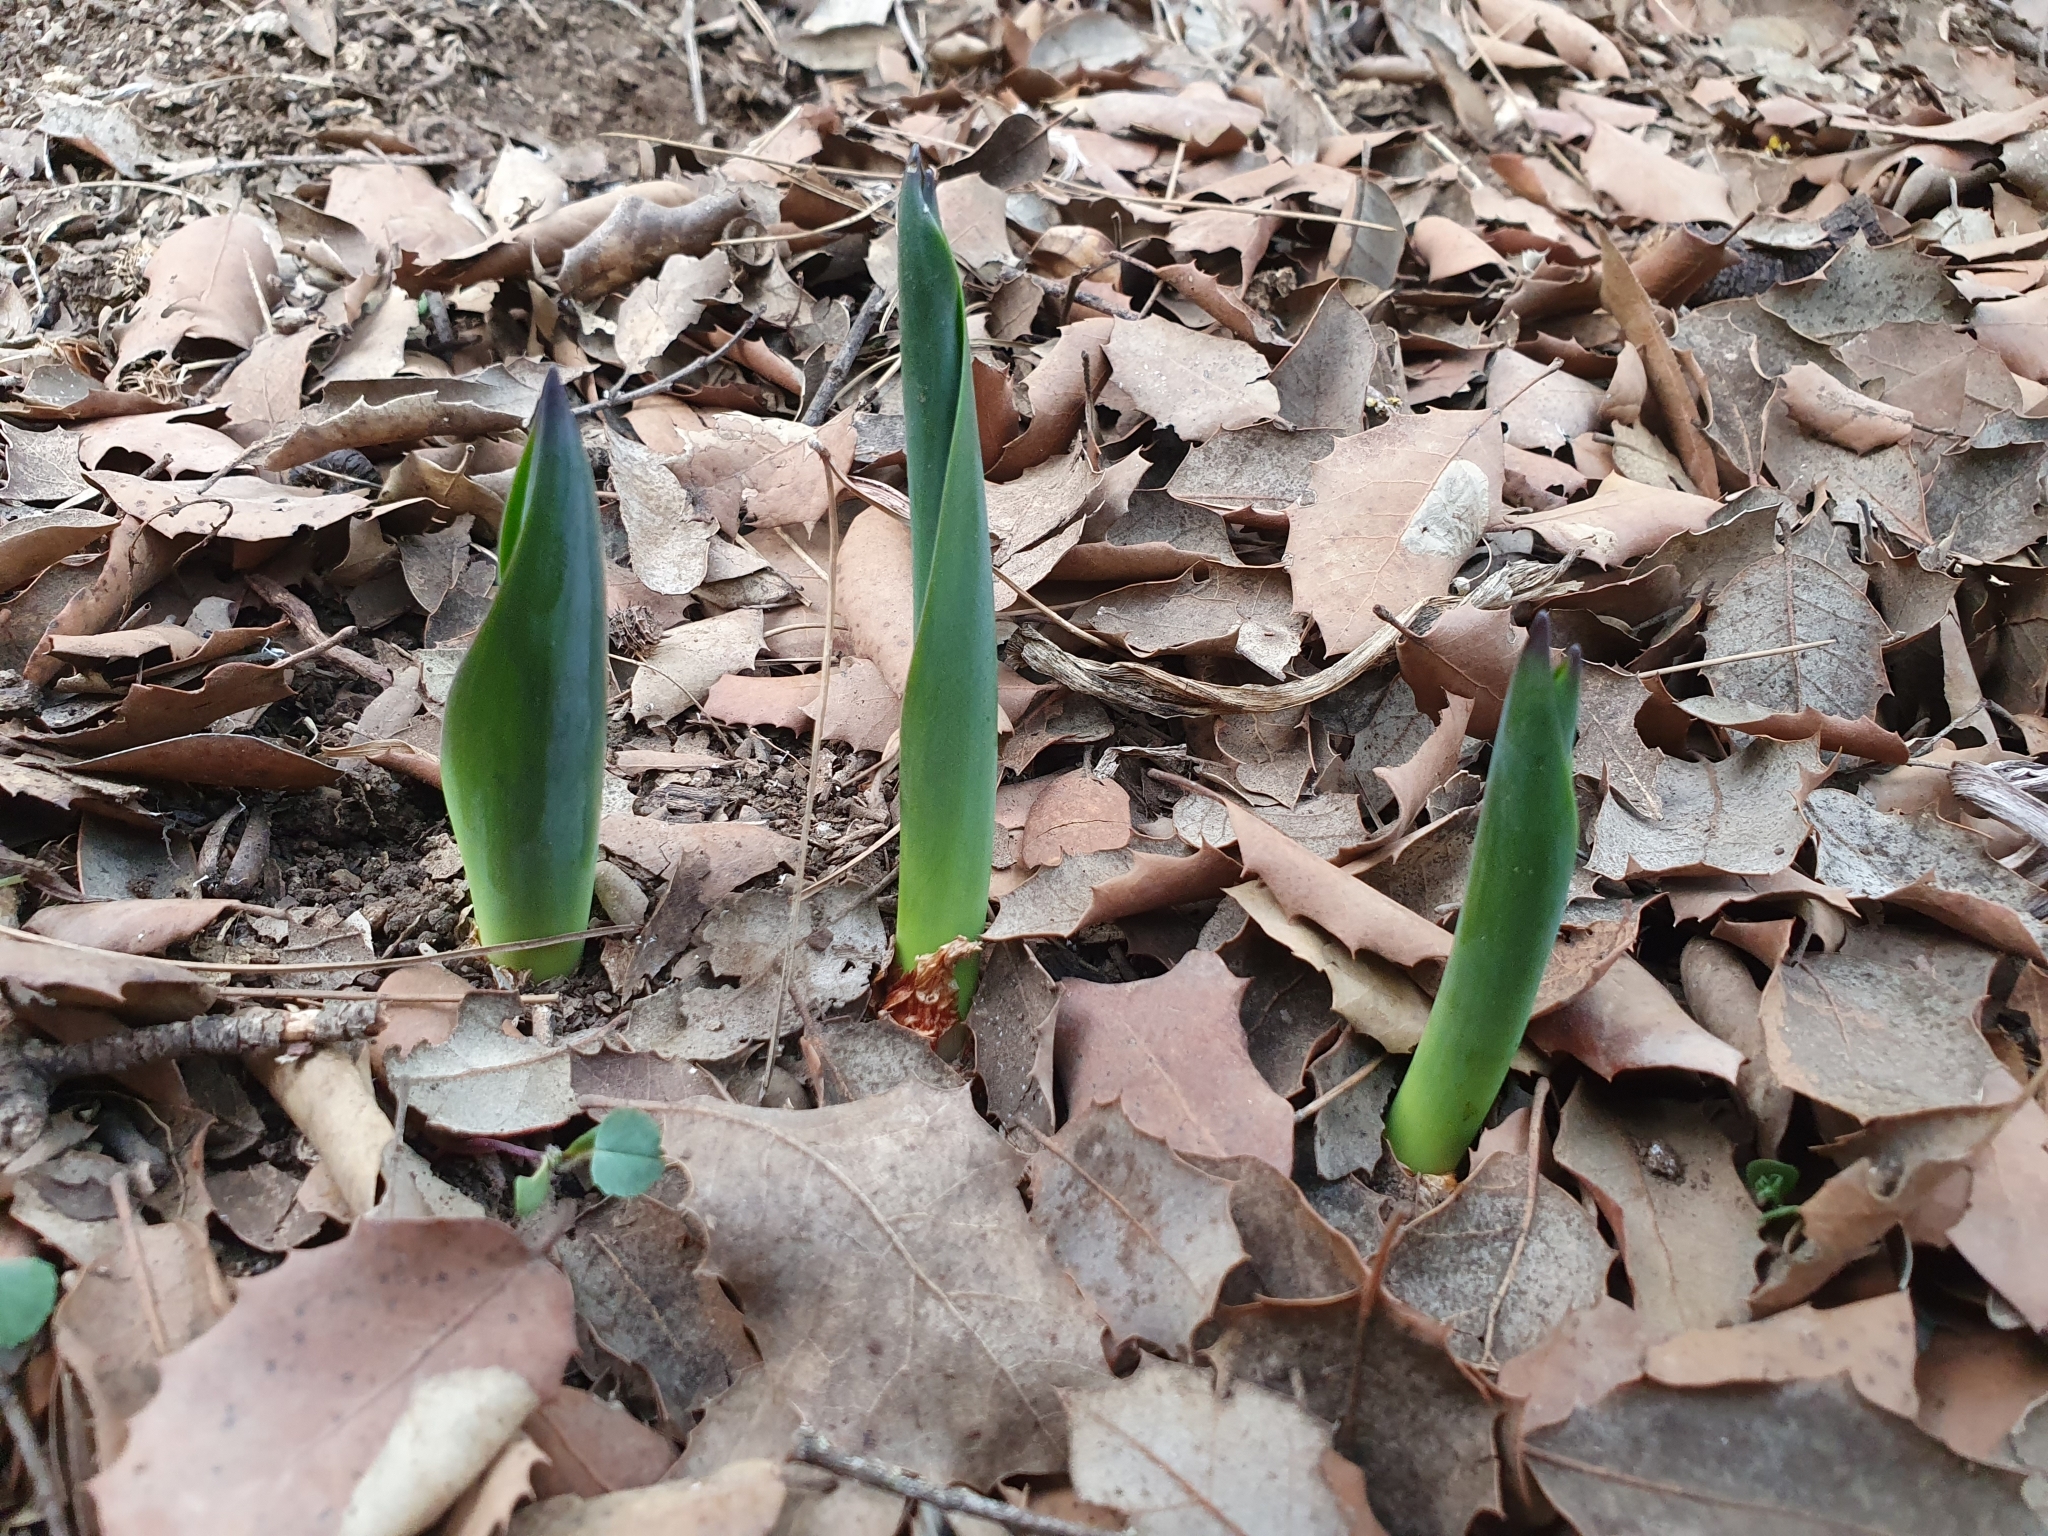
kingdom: Plantae
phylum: Tracheophyta
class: Liliopsida
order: Asparagales
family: Asparagaceae
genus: Drimia
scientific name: Drimia numidica
